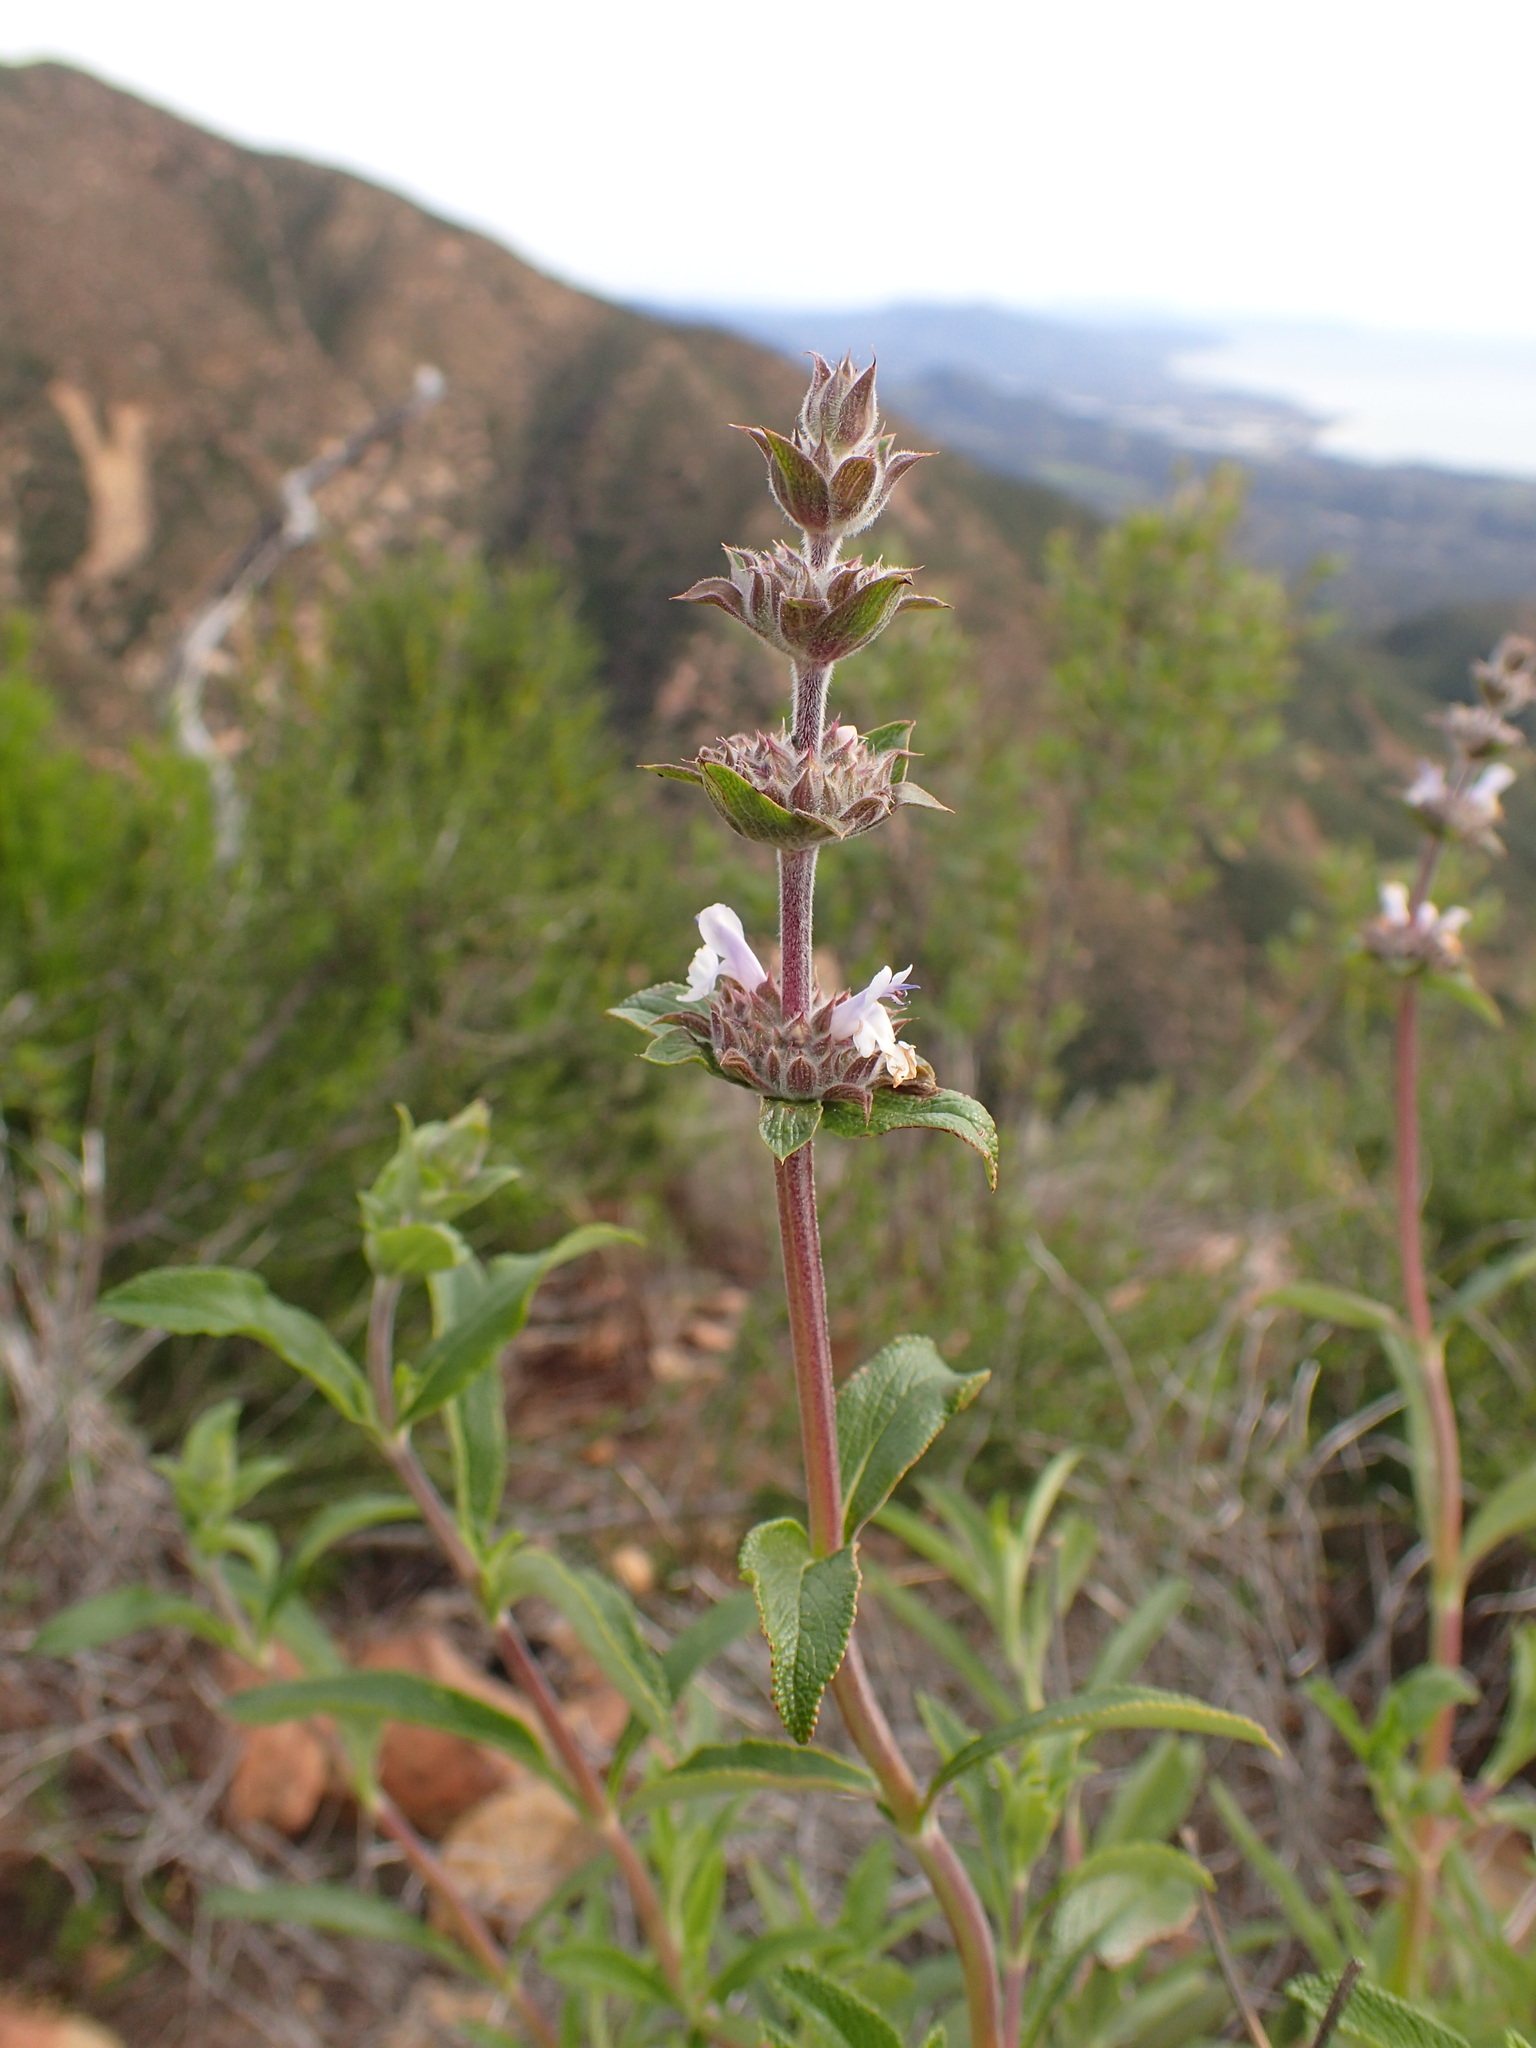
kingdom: Plantae
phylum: Tracheophyta
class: Magnoliopsida
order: Lamiales
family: Lamiaceae
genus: Salvia
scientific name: Salvia mellifera
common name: Black sage
